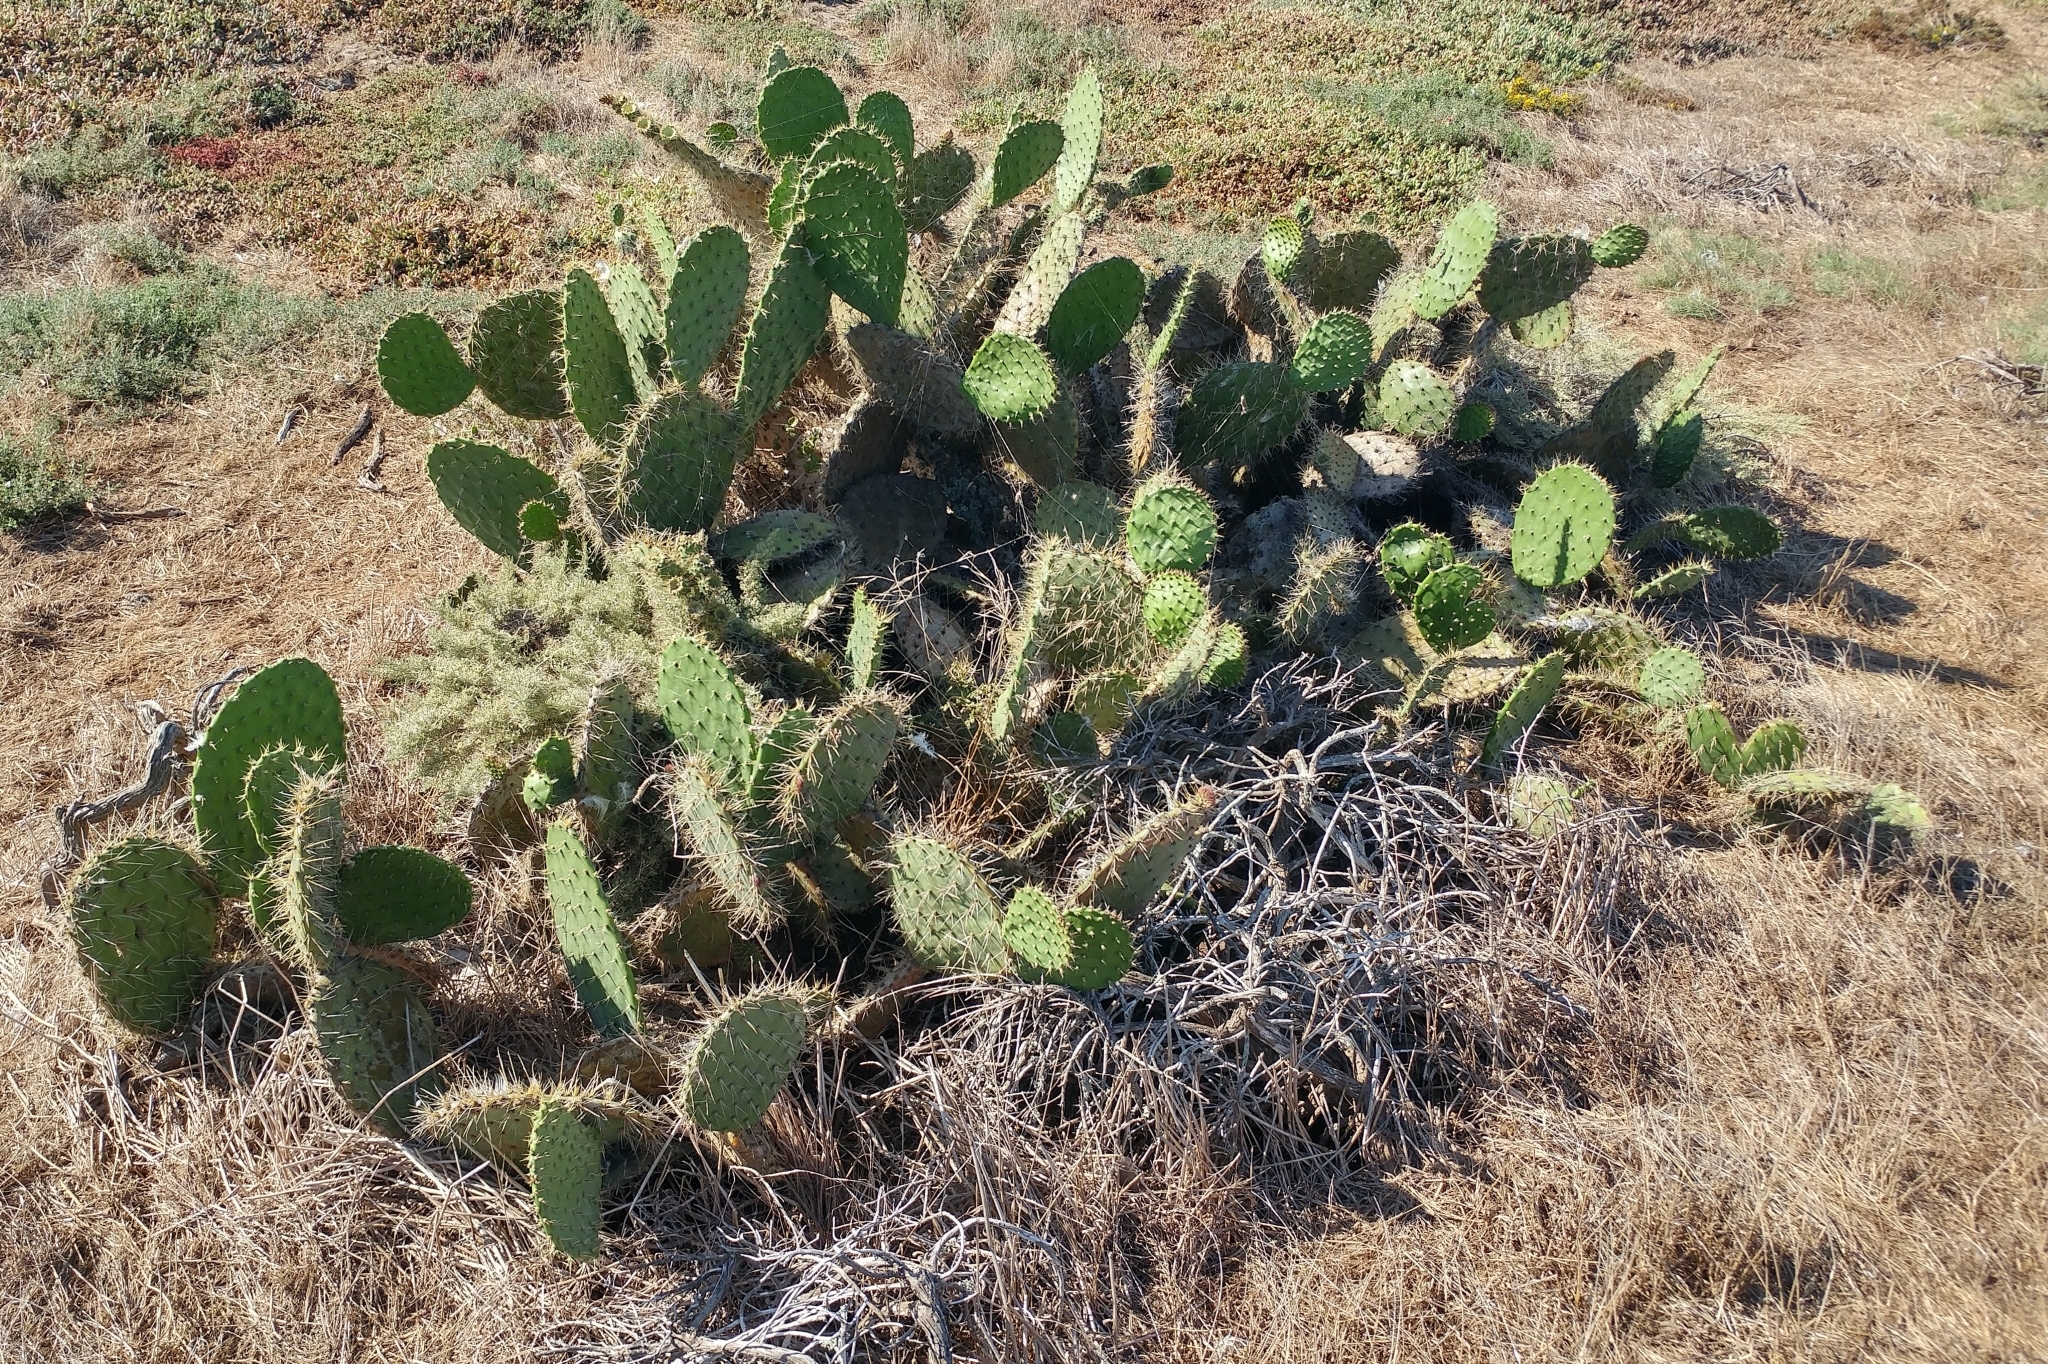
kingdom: Plantae
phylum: Tracheophyta
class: Magnoliopsida
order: Caryophyllales
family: Cactaceae
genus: Opuntia
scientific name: Opuntia oricola
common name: Chaparral prickly-pear
